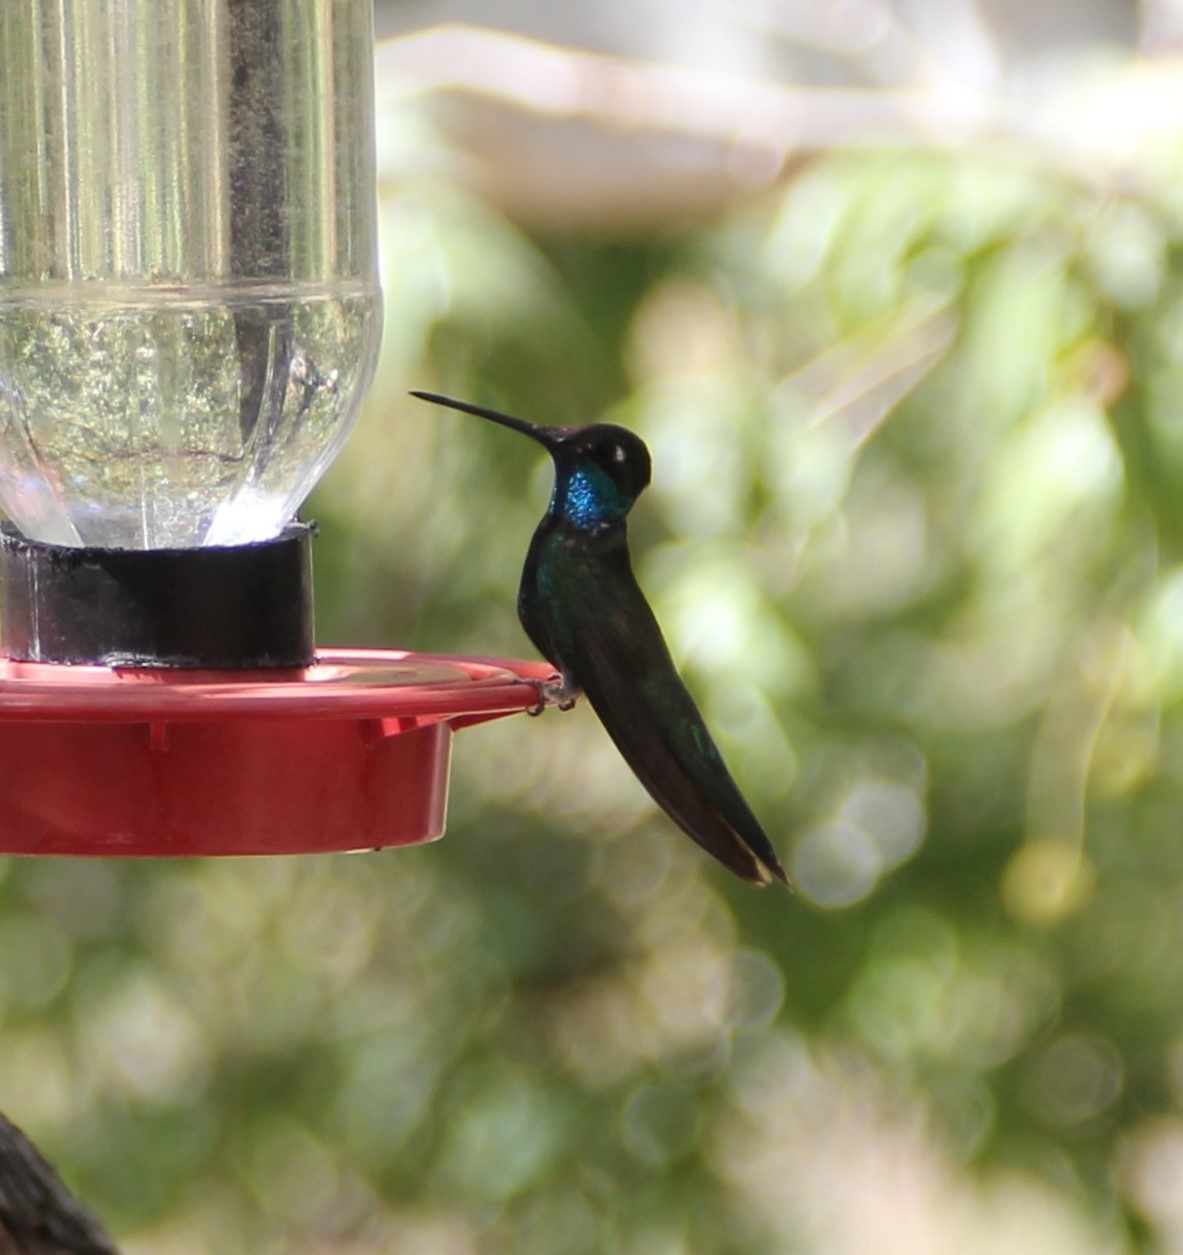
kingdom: Animalia
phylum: Chordata
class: Aves
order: Apodiformes
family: Trochilidae
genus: Eugenes
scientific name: Eugenes fulgens
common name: Magnificent hummingbird
